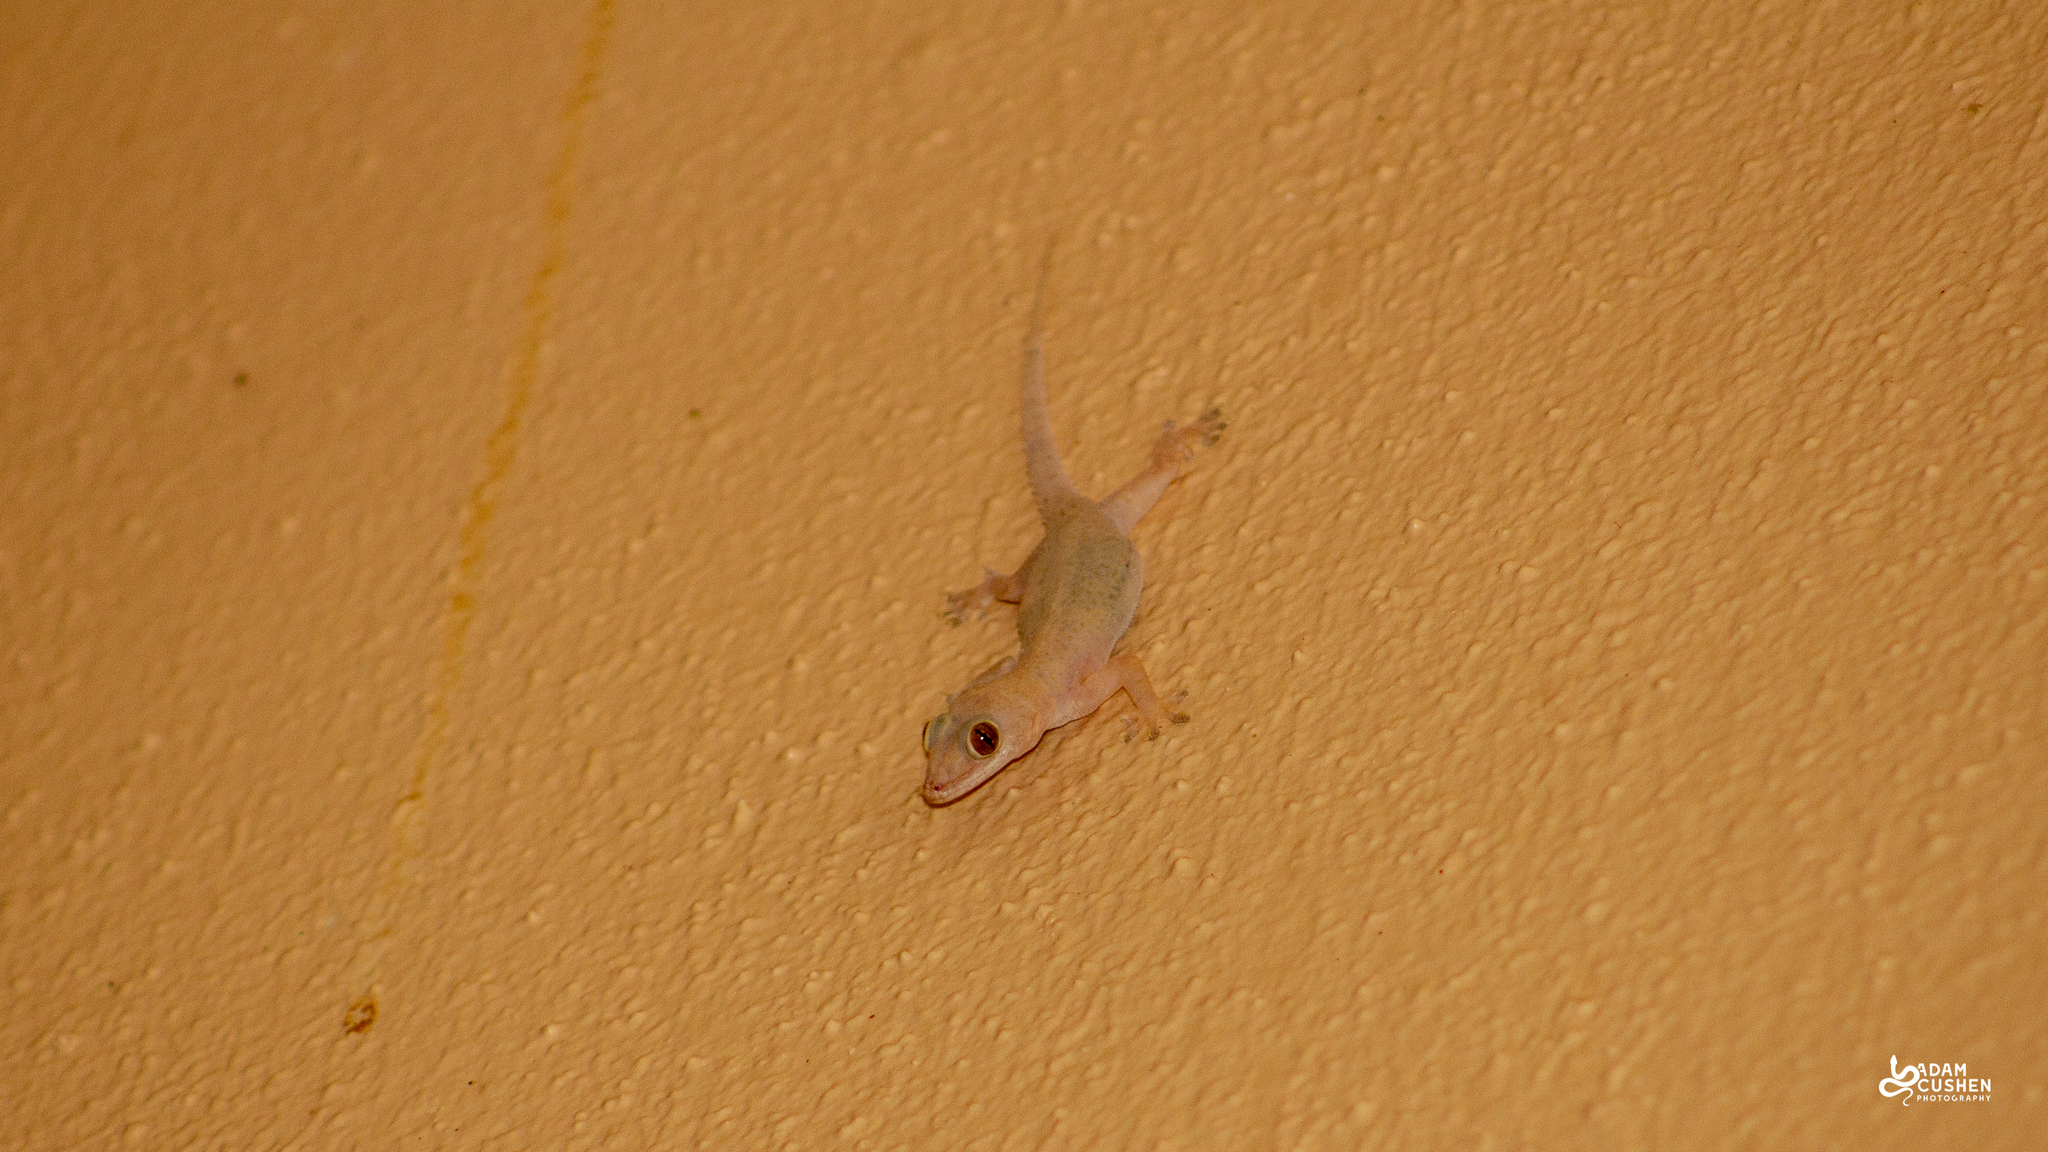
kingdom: Animalia
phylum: Chordata
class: Squamata
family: Gekkonidae
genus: Hemidactylus
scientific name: Hemidactylus mabouia
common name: House gecko
